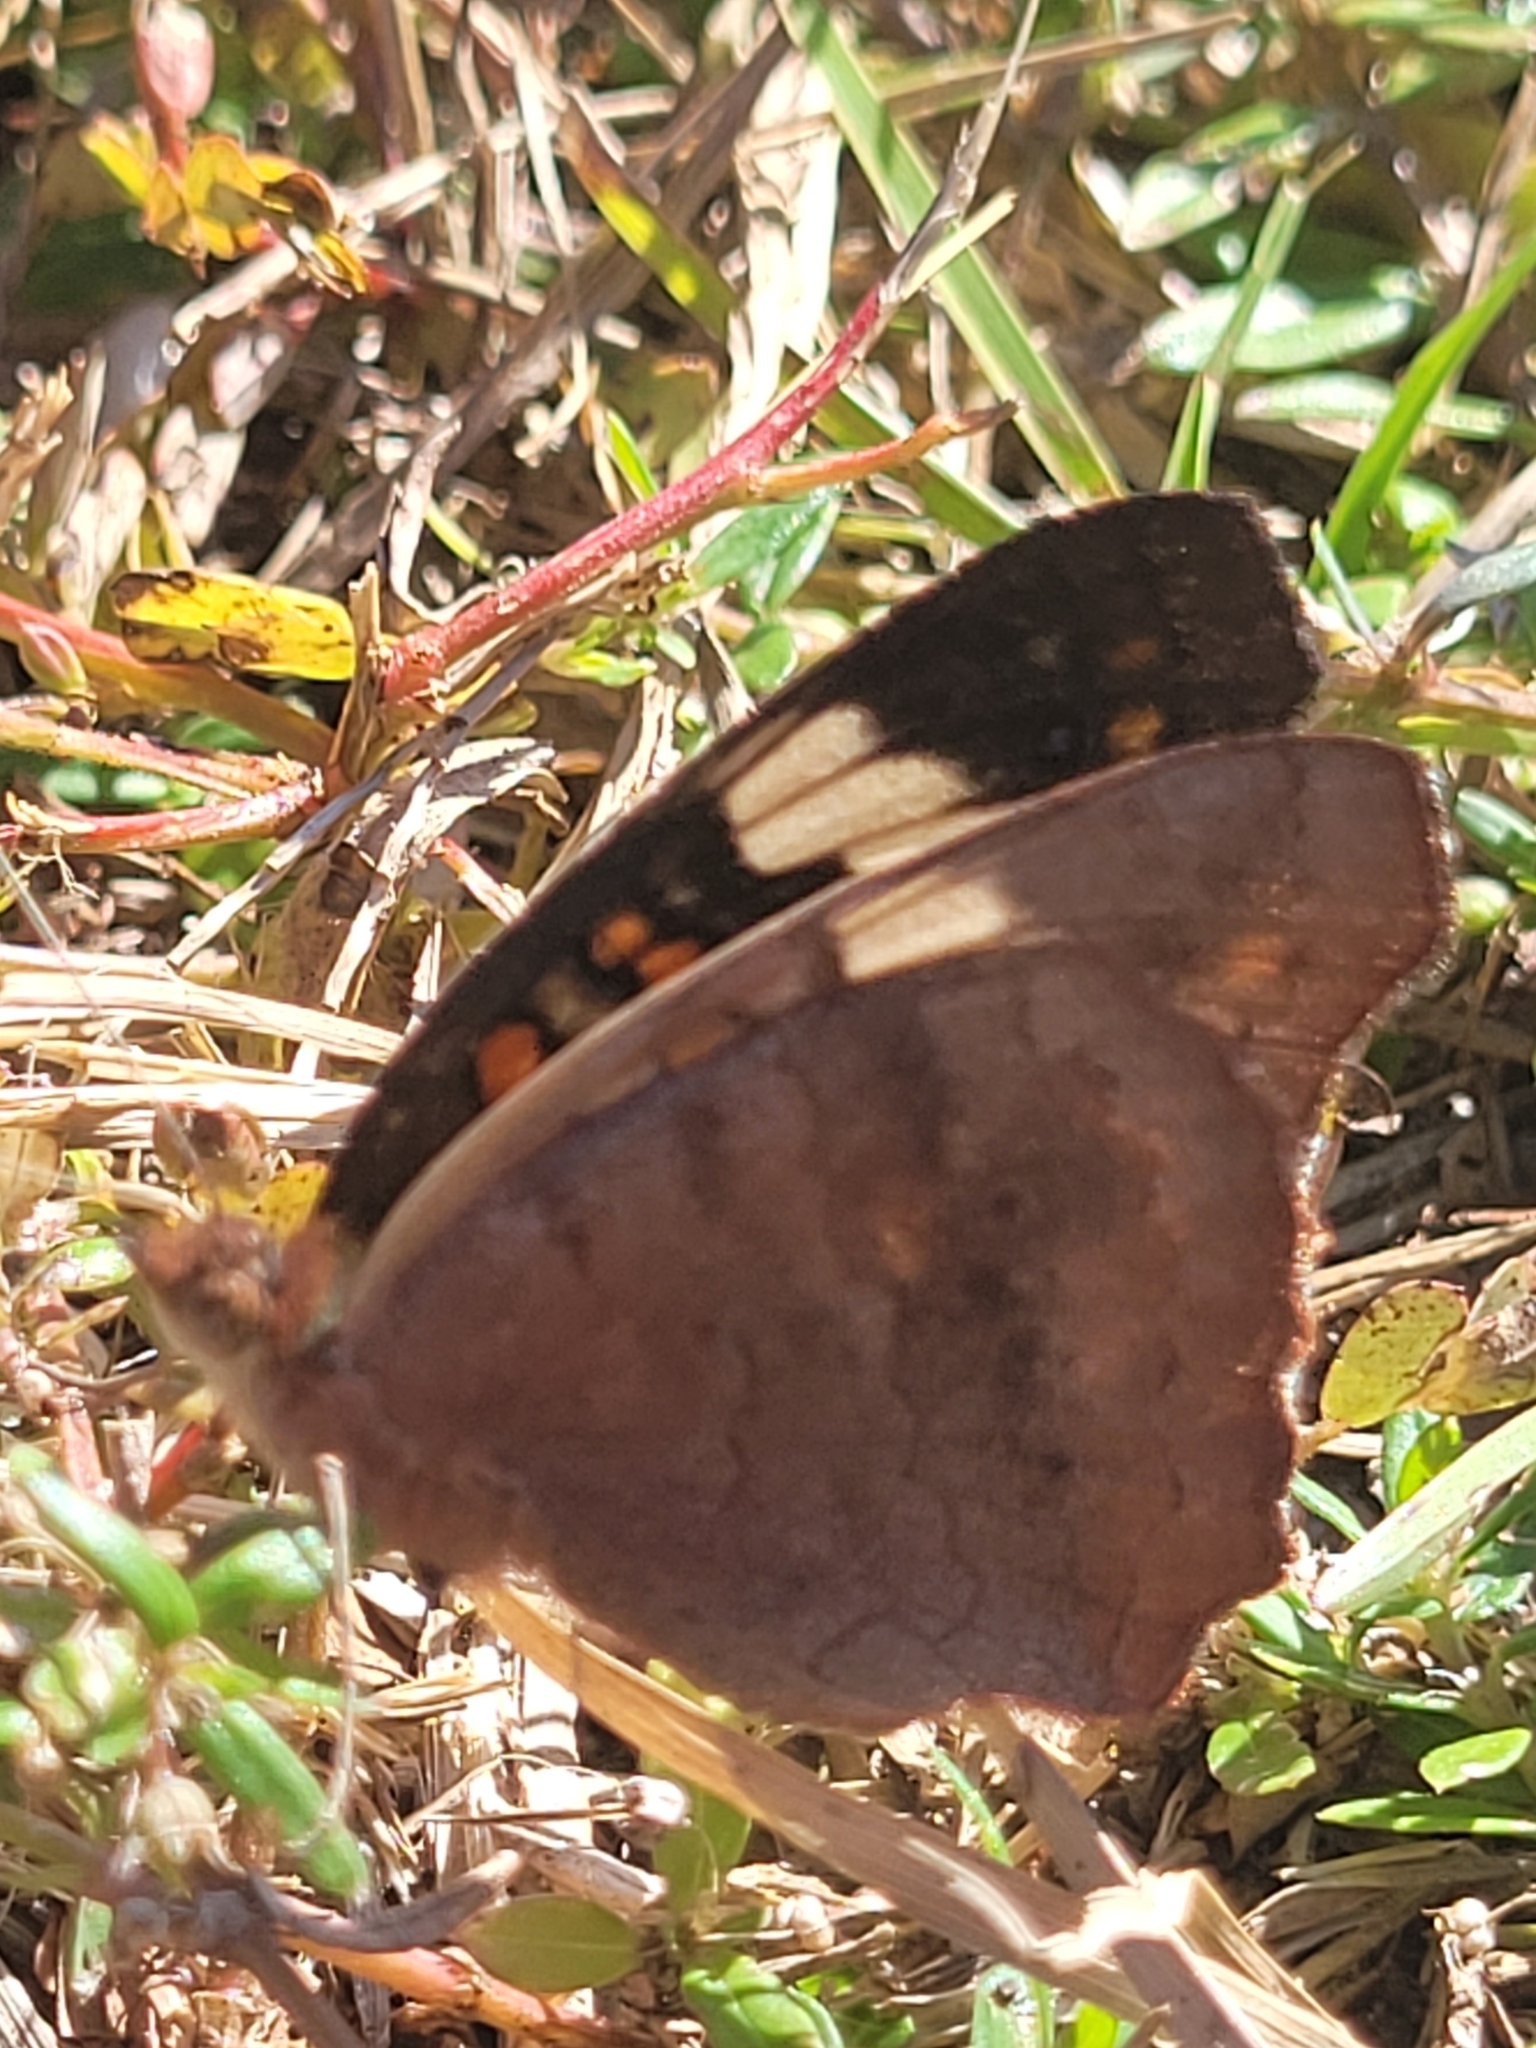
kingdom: Animalia
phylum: Arthropoda
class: Insecta
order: Lepidoptera
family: Nymphalidae
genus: Junonia
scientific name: Junonia coenia
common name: Common buckeye
